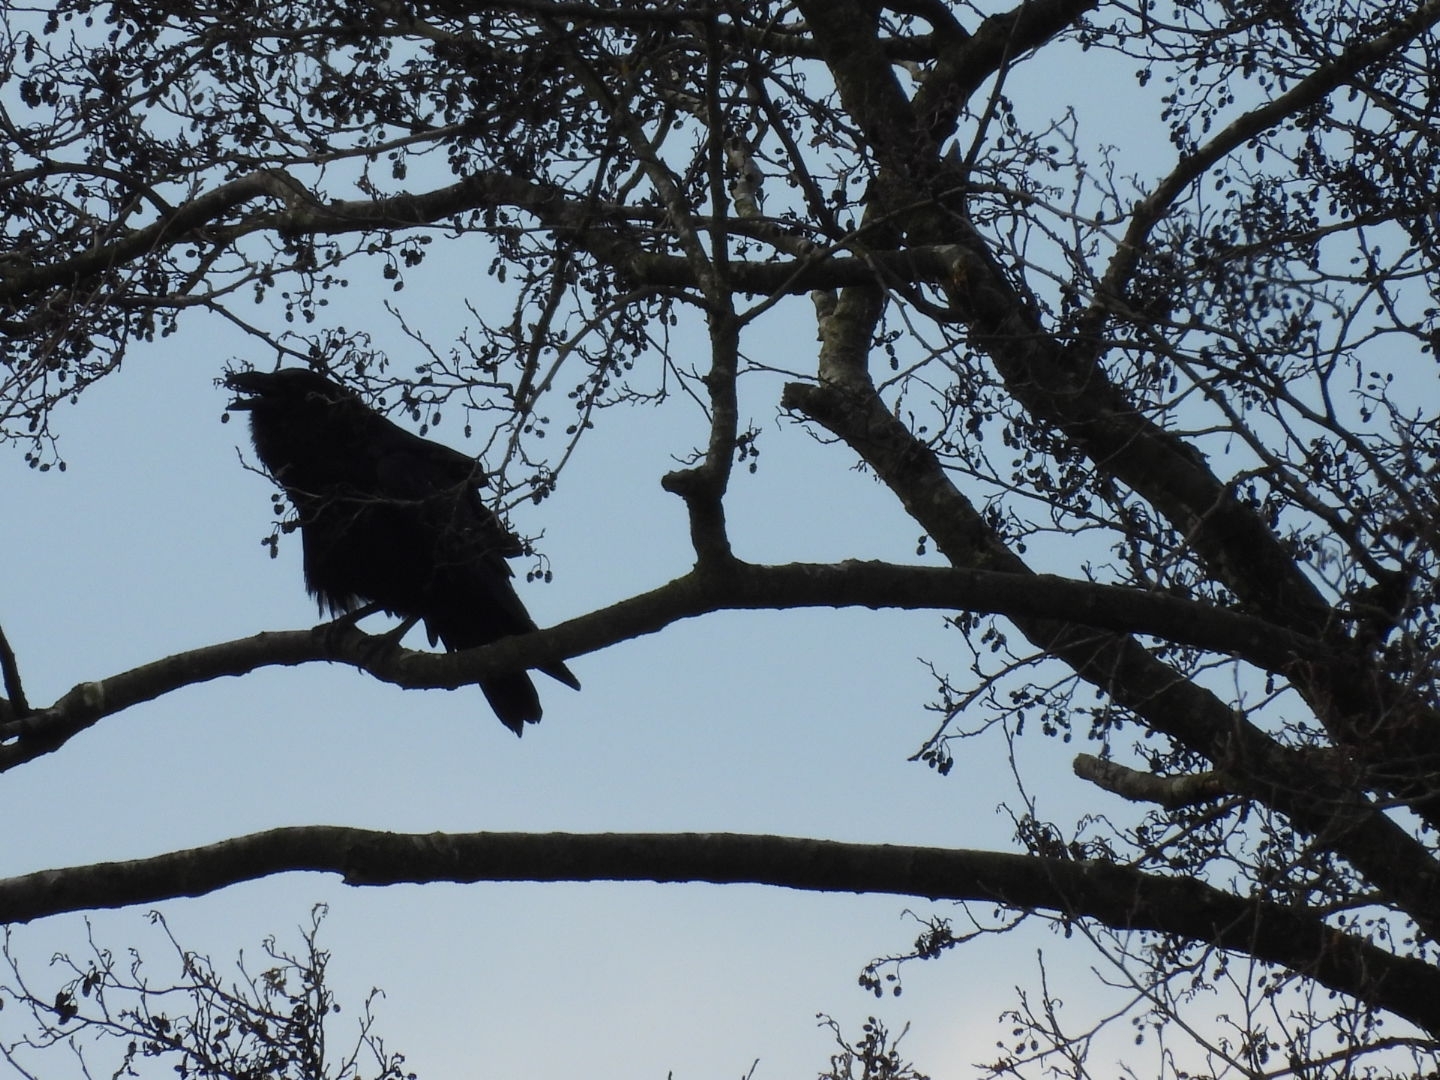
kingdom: Animalia
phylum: Chordata
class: Aves
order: Passeriformes
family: Corvidae
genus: Corvus
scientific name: Corvus corax
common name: Common raven
